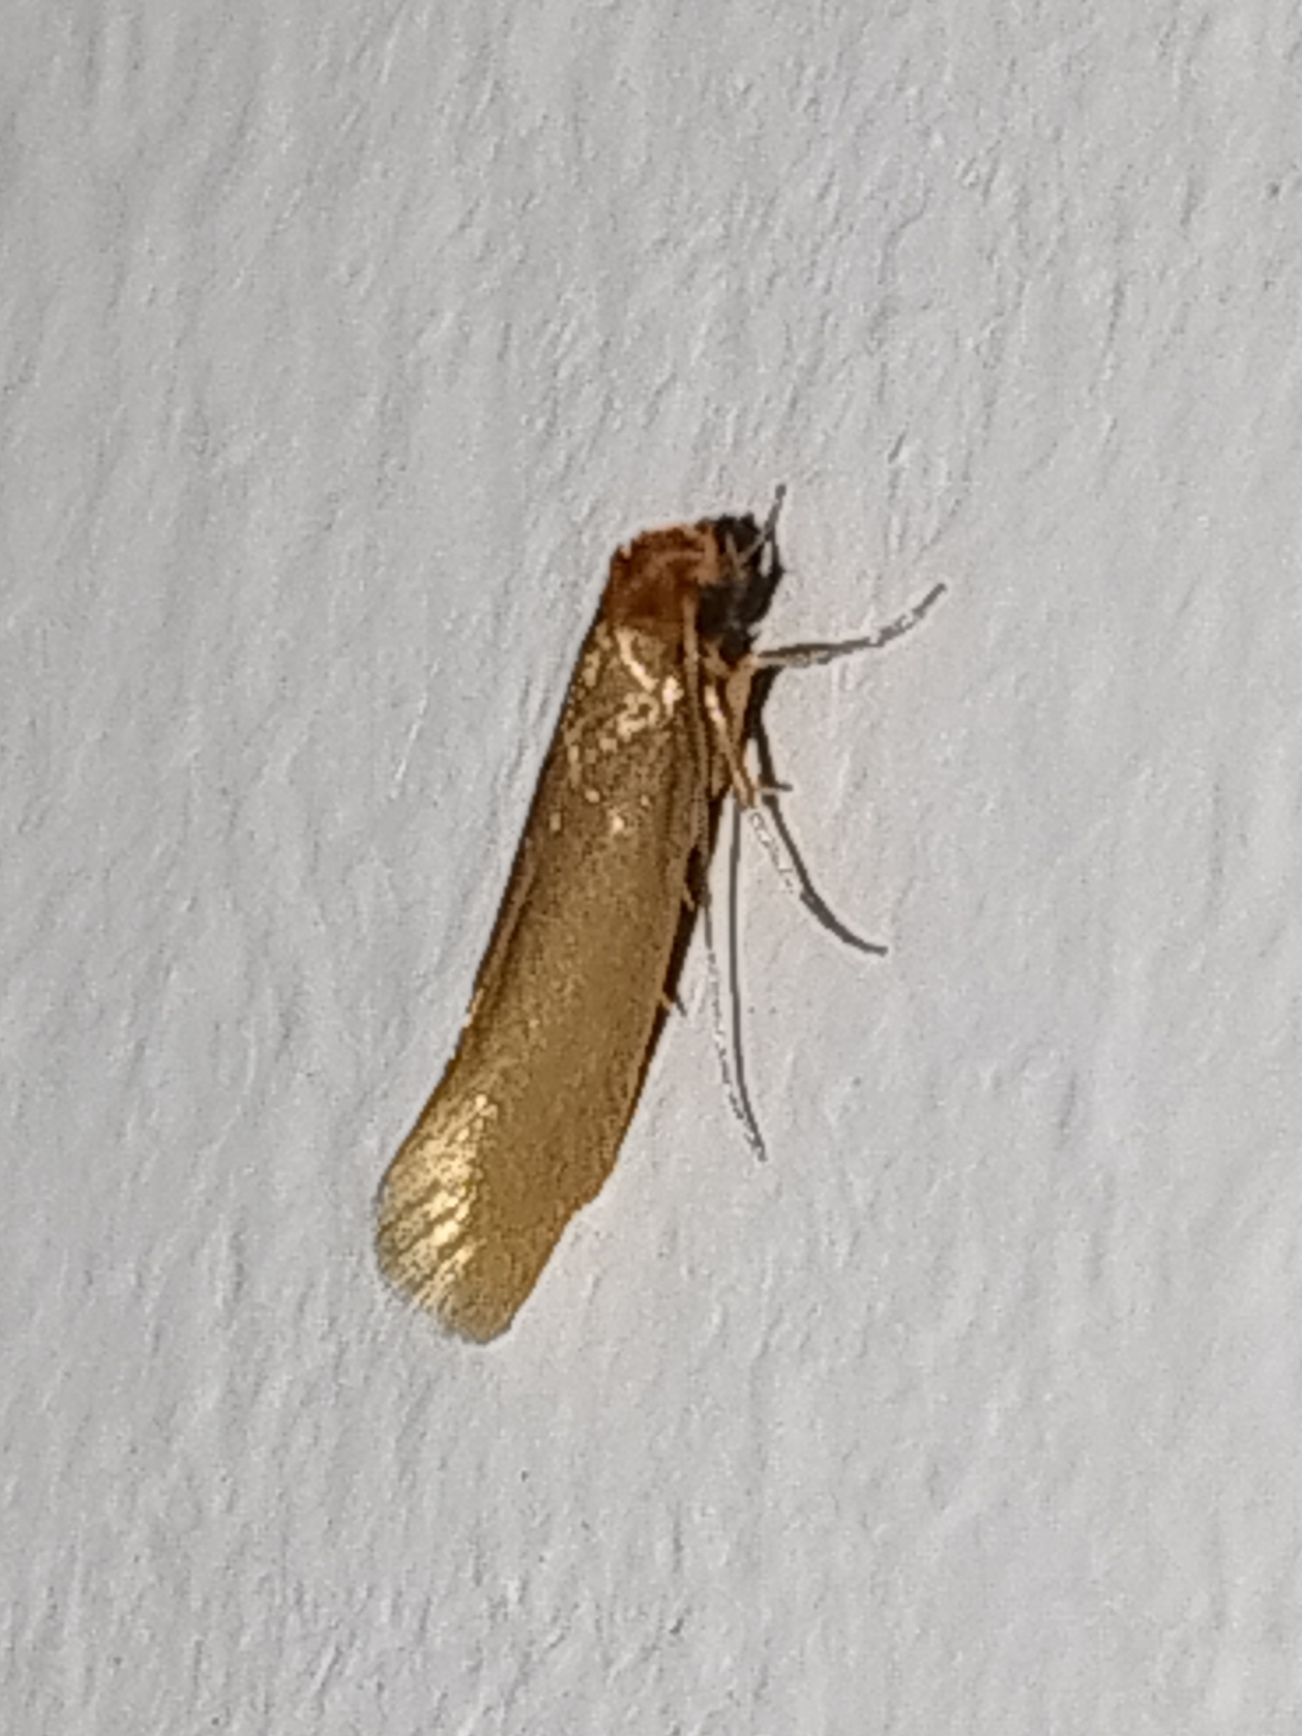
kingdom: Animalia
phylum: Arthropoda
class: Insecta
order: Lepidoptera
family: Tineidae
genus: Tineola
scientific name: Tineola bisselliella
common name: Webbing clothes moth
